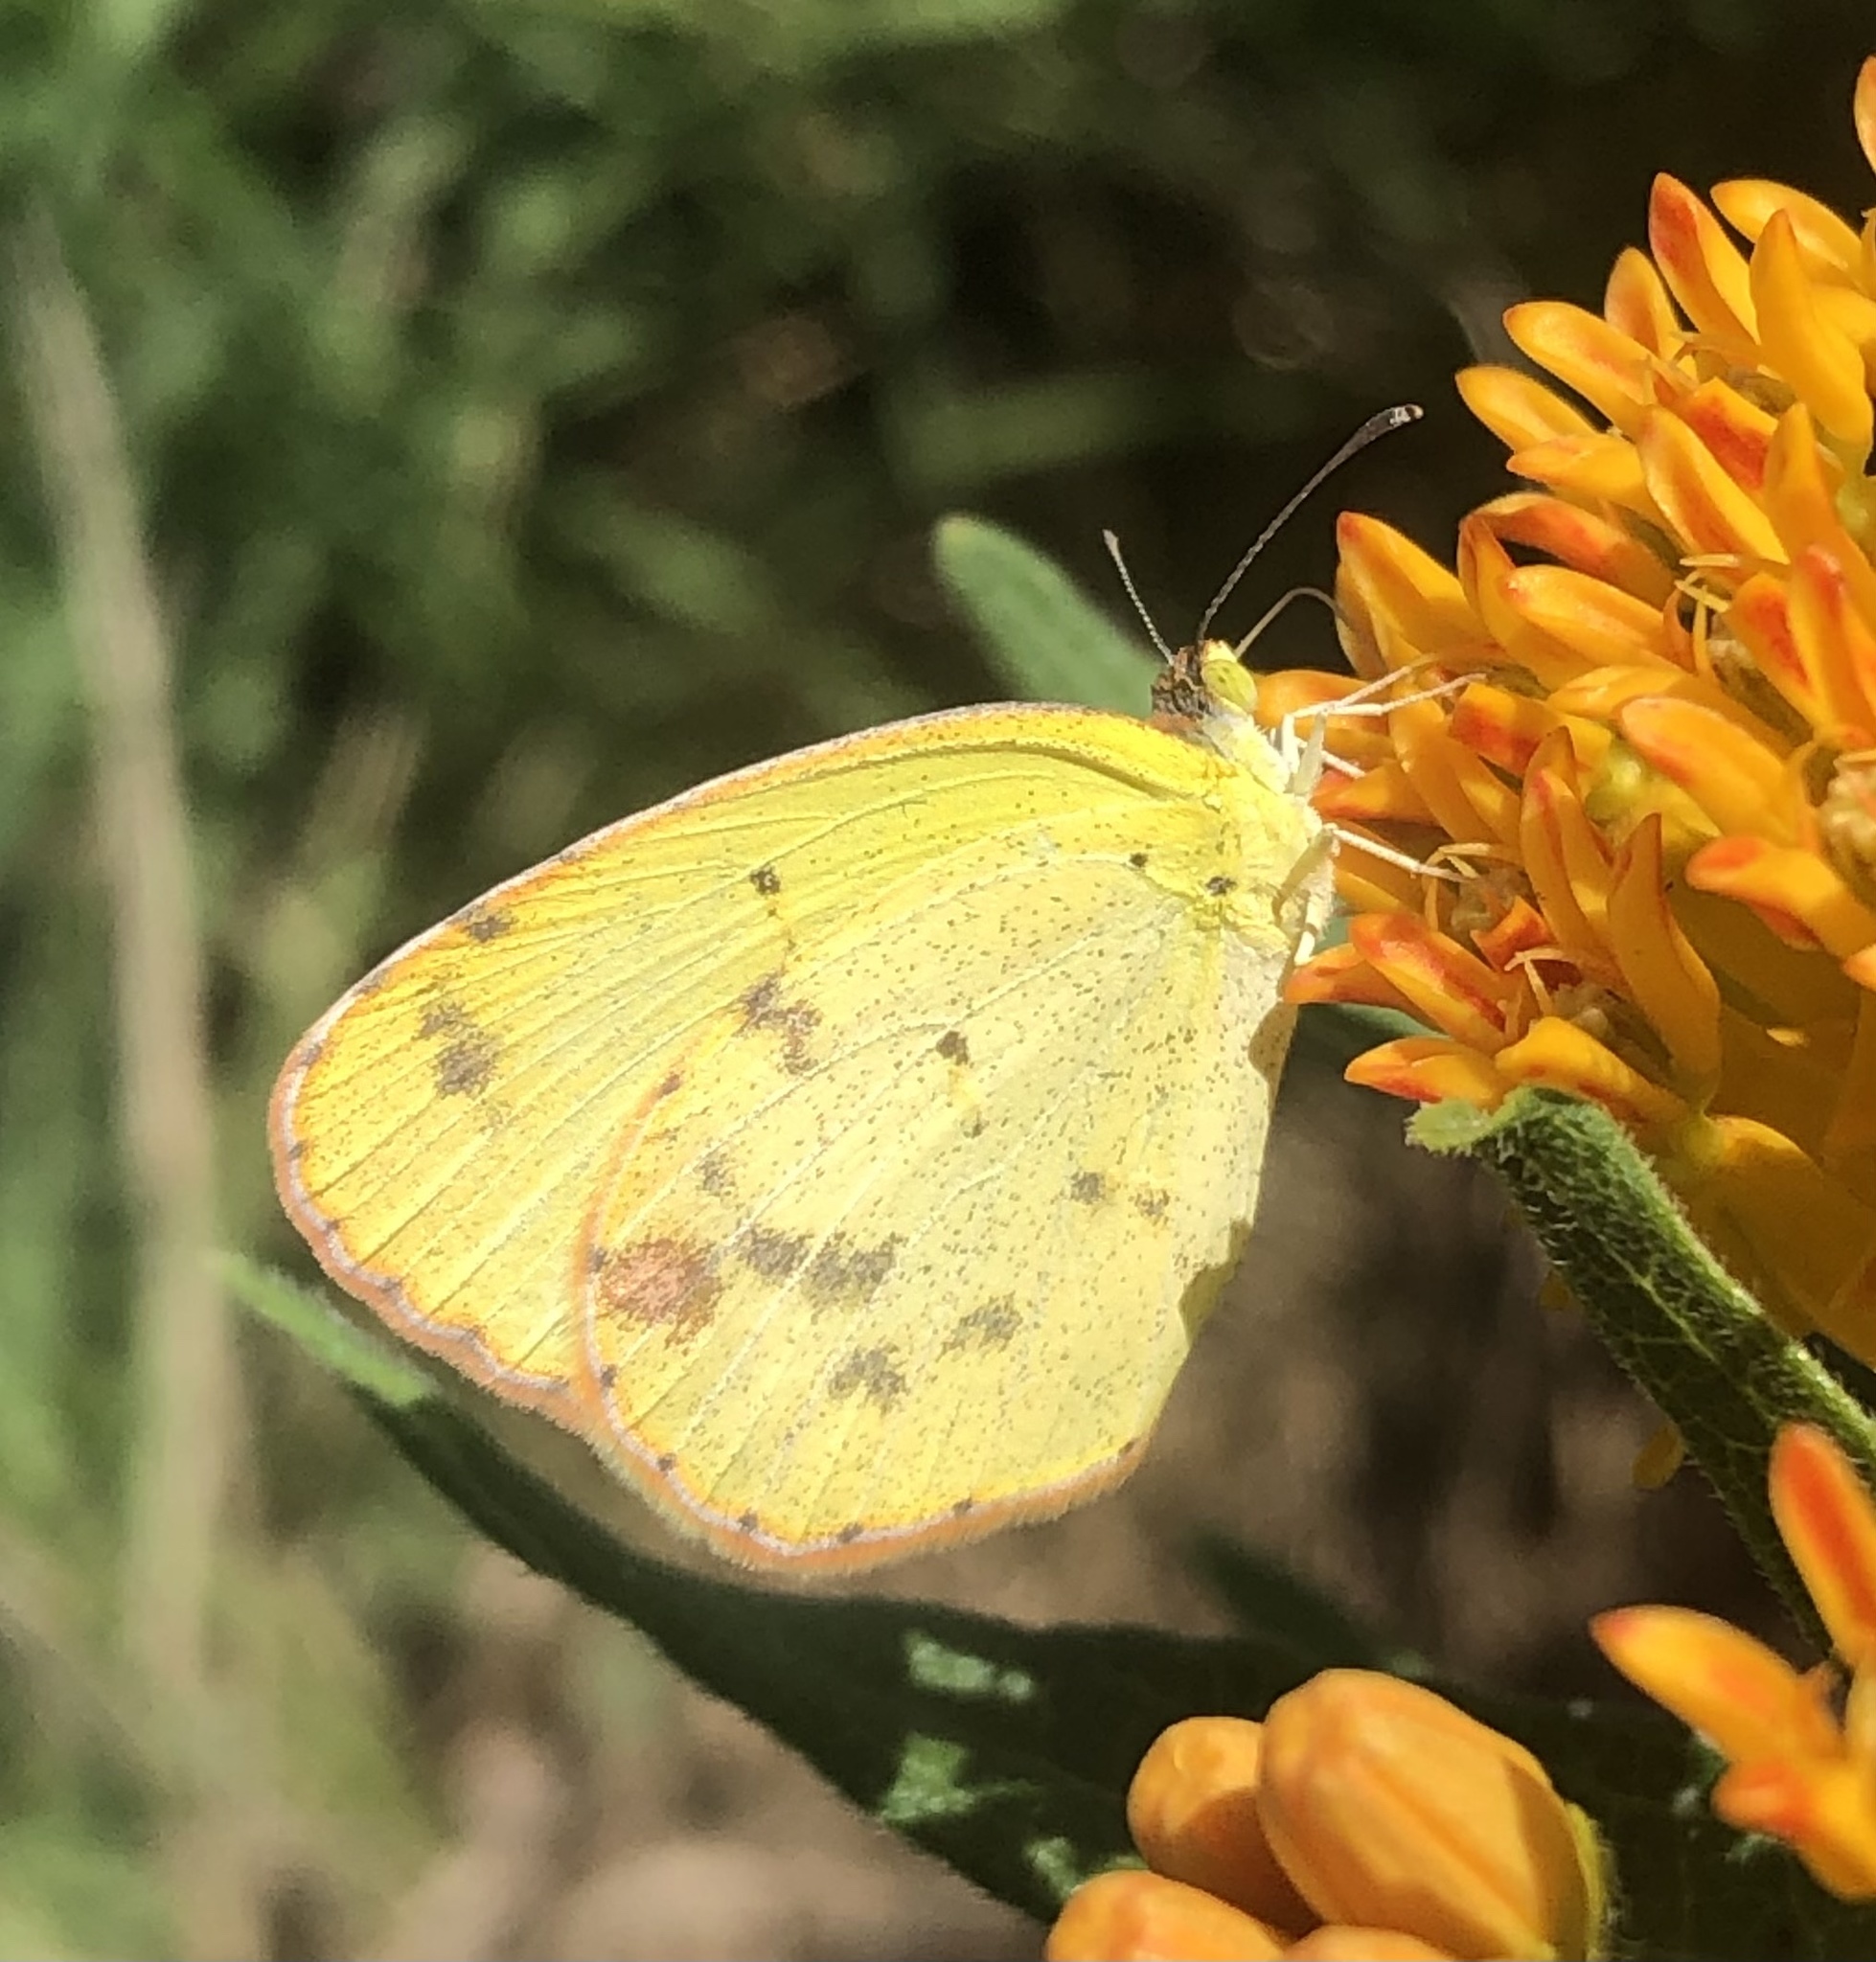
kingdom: Animalia
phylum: Arthropoda
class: Insecta
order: Lepidoptera
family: Pieridae
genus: Pyrisitia
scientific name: Pyrisitia lisa
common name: Little yellow
